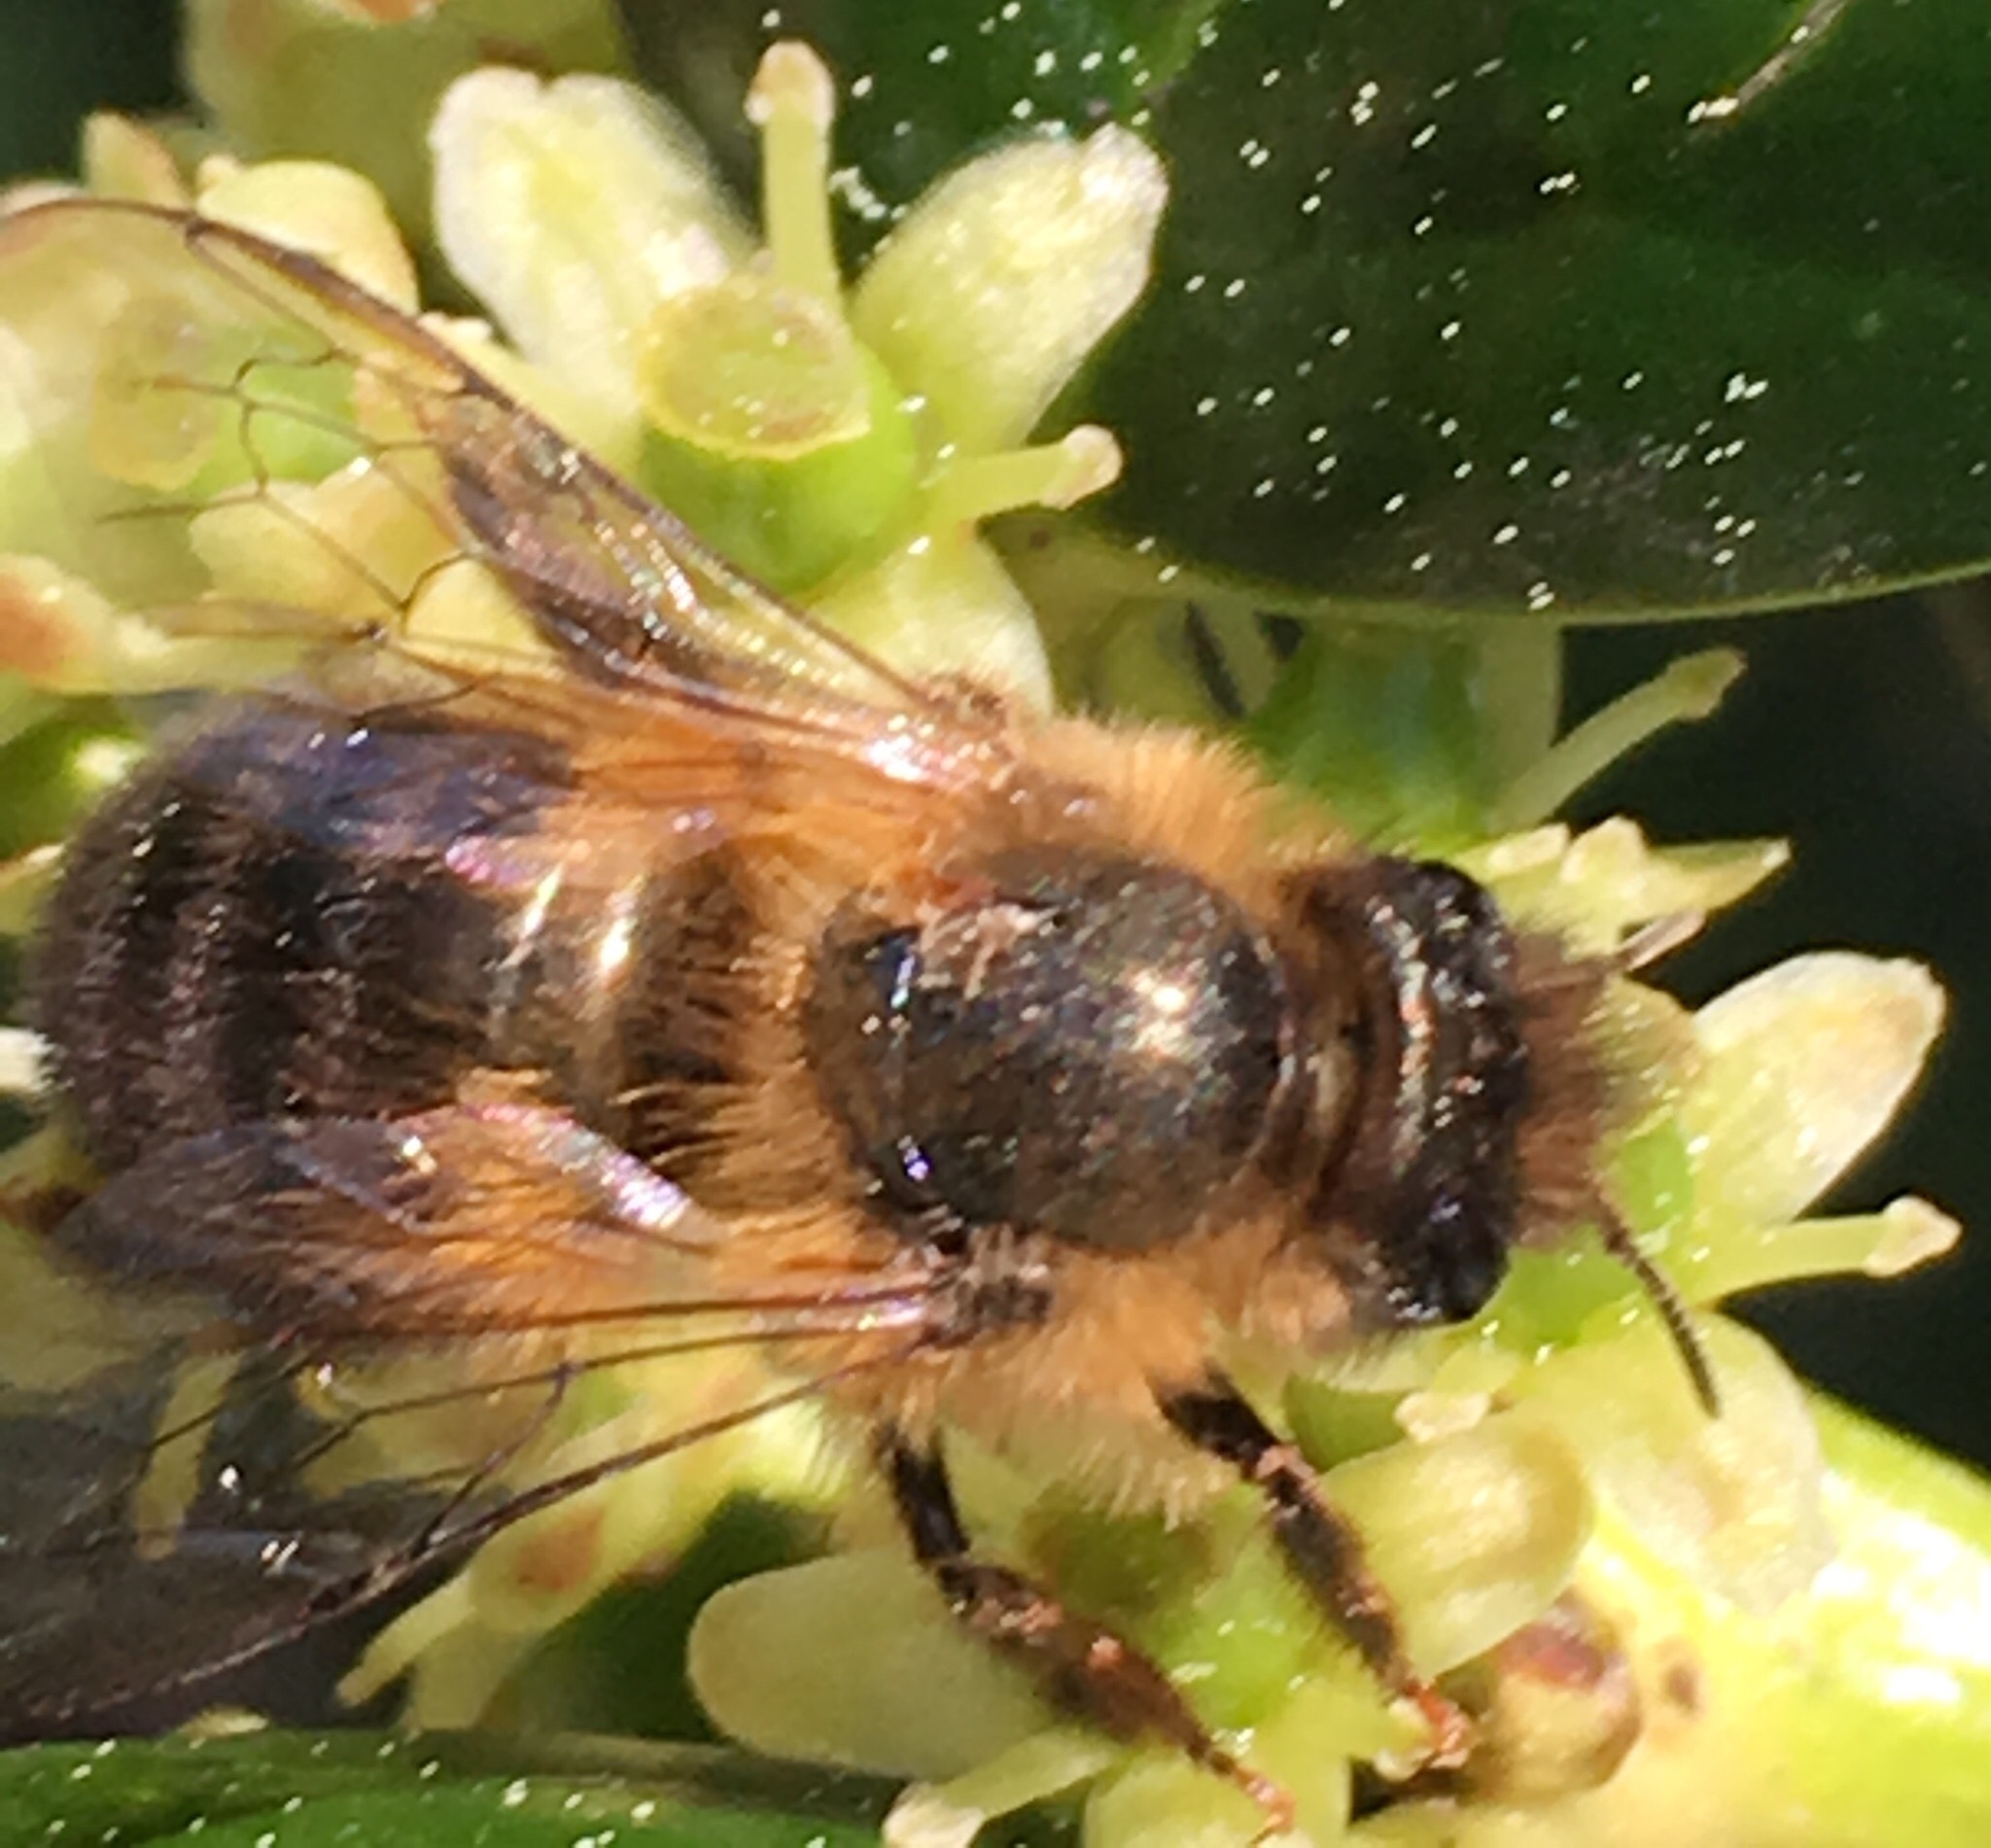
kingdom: Animalia
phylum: Arthropoda
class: Insecta
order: Hymenoptera
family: Megachilidae
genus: Osmia
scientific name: Osmia taurus
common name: Taurus mason bee
